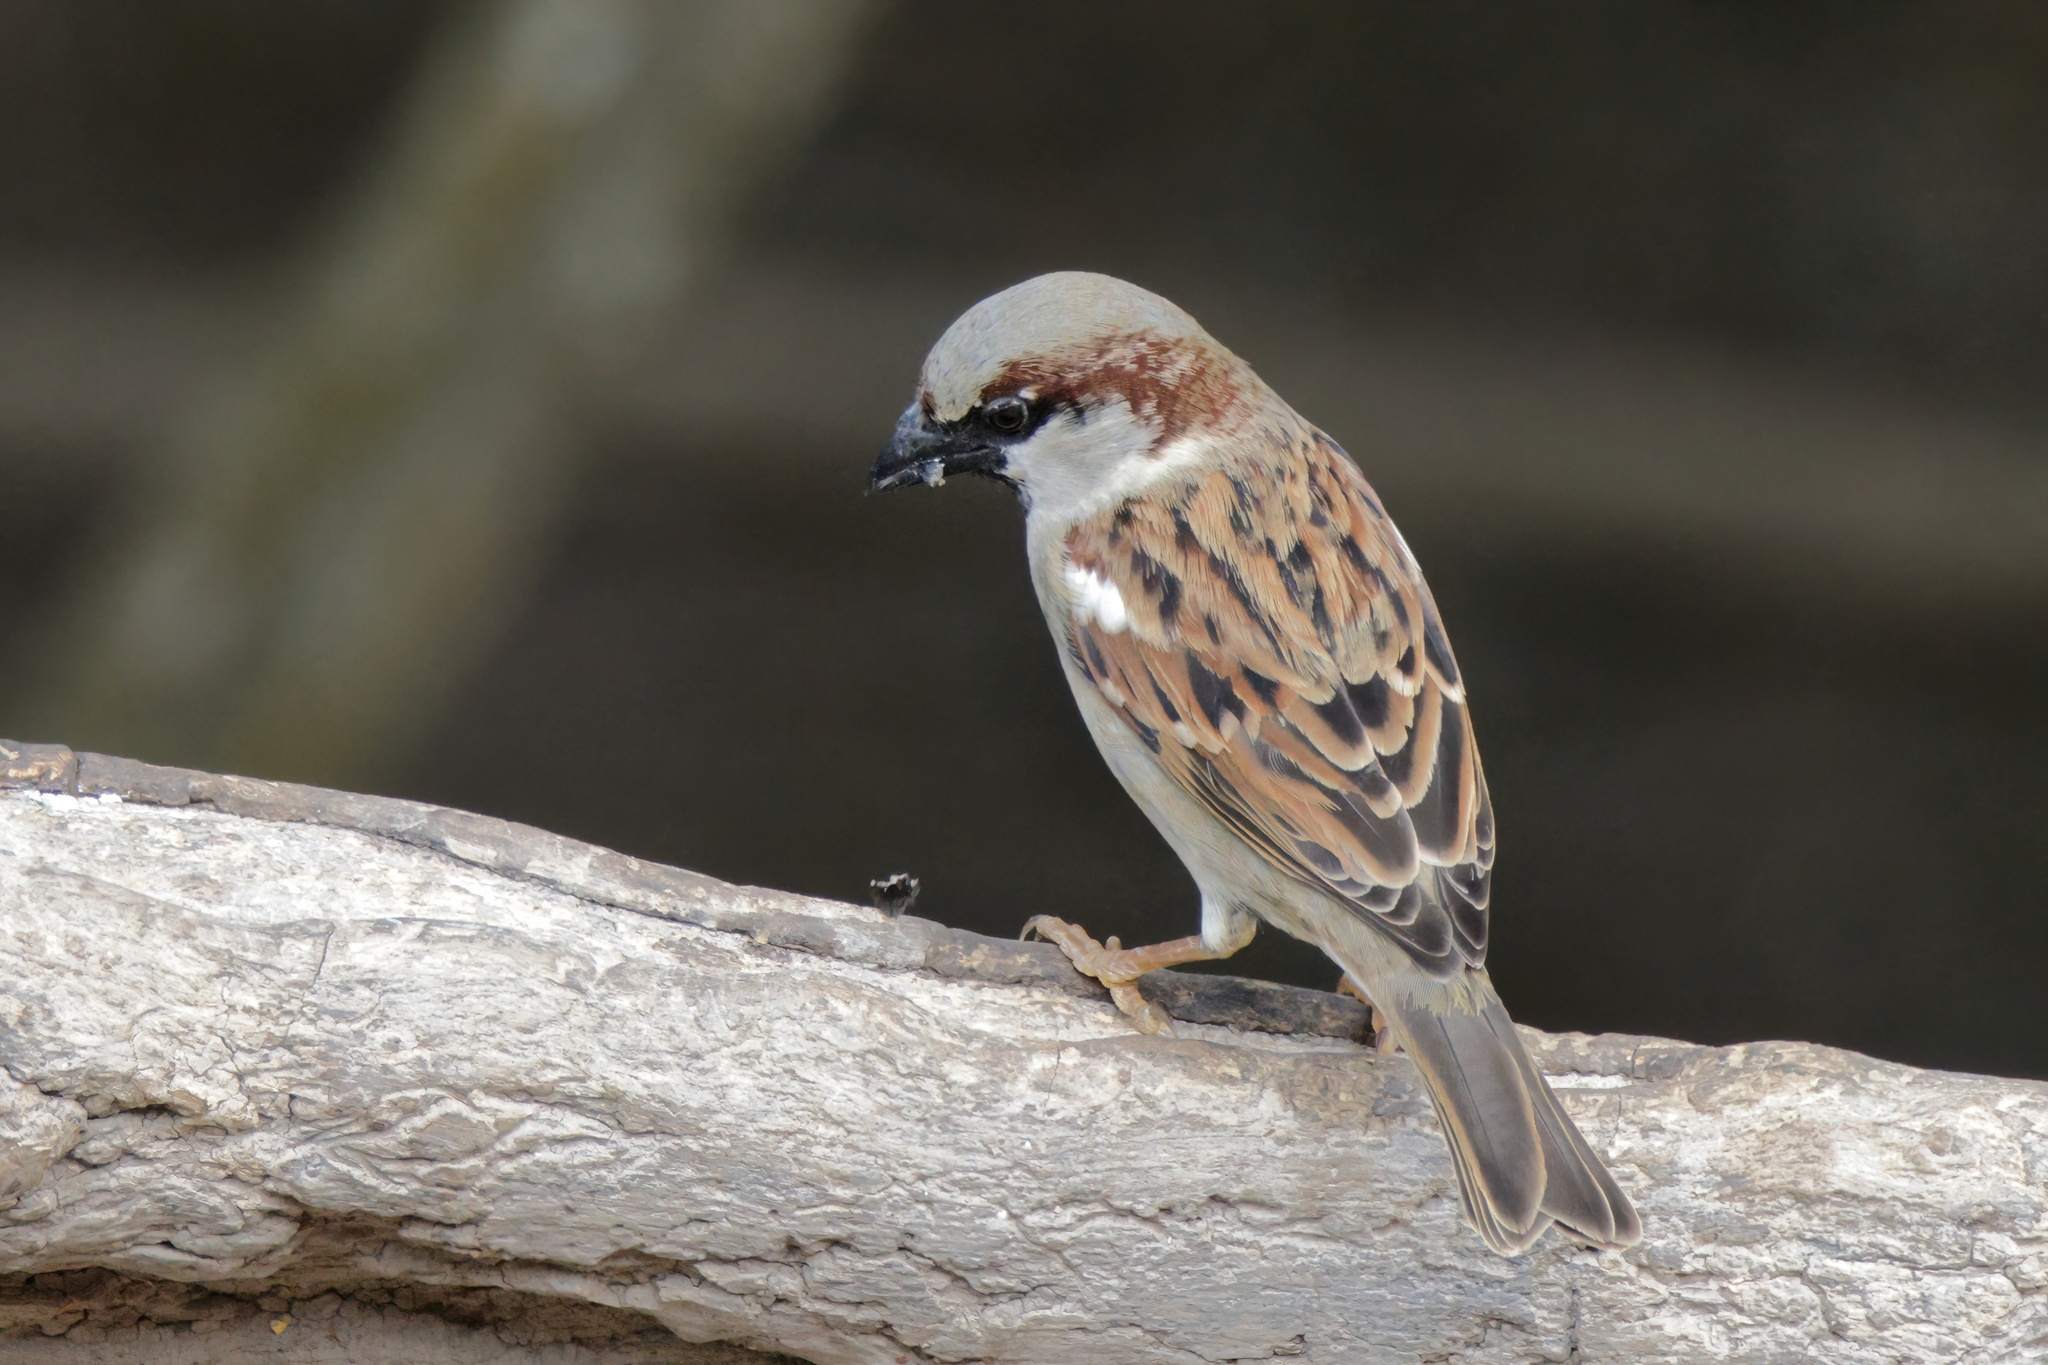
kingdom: Animalia
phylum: Chordata
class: Aves
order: Passeriformes
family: Passeridae
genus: Passer
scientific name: Passer domesticus
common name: House sparrow
